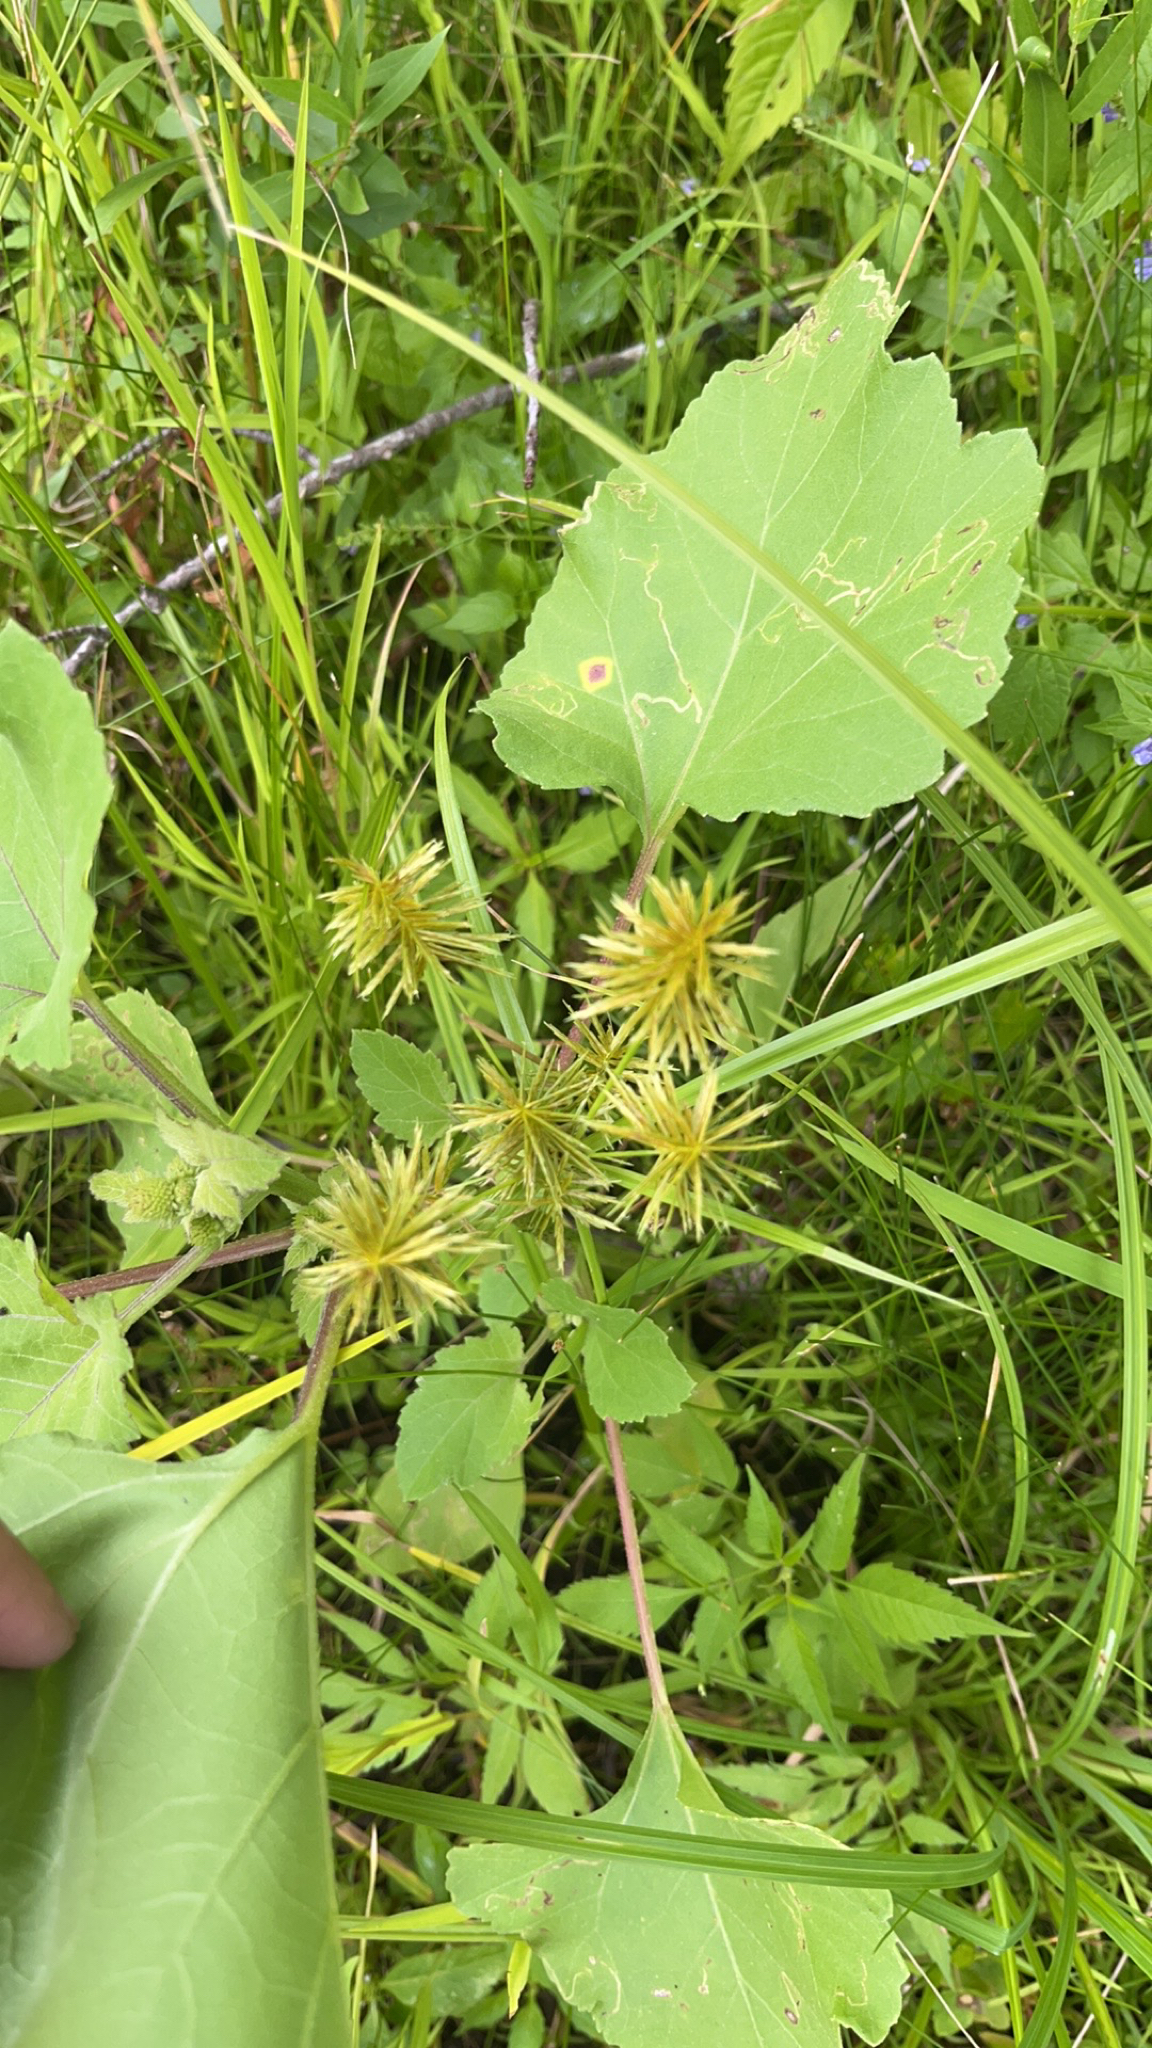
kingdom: Plantae
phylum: Tracheophyta
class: Liliopsida
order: Poales
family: Cyperaceae
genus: Cyperus
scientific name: Cyperus strigosus
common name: False nutsedge
